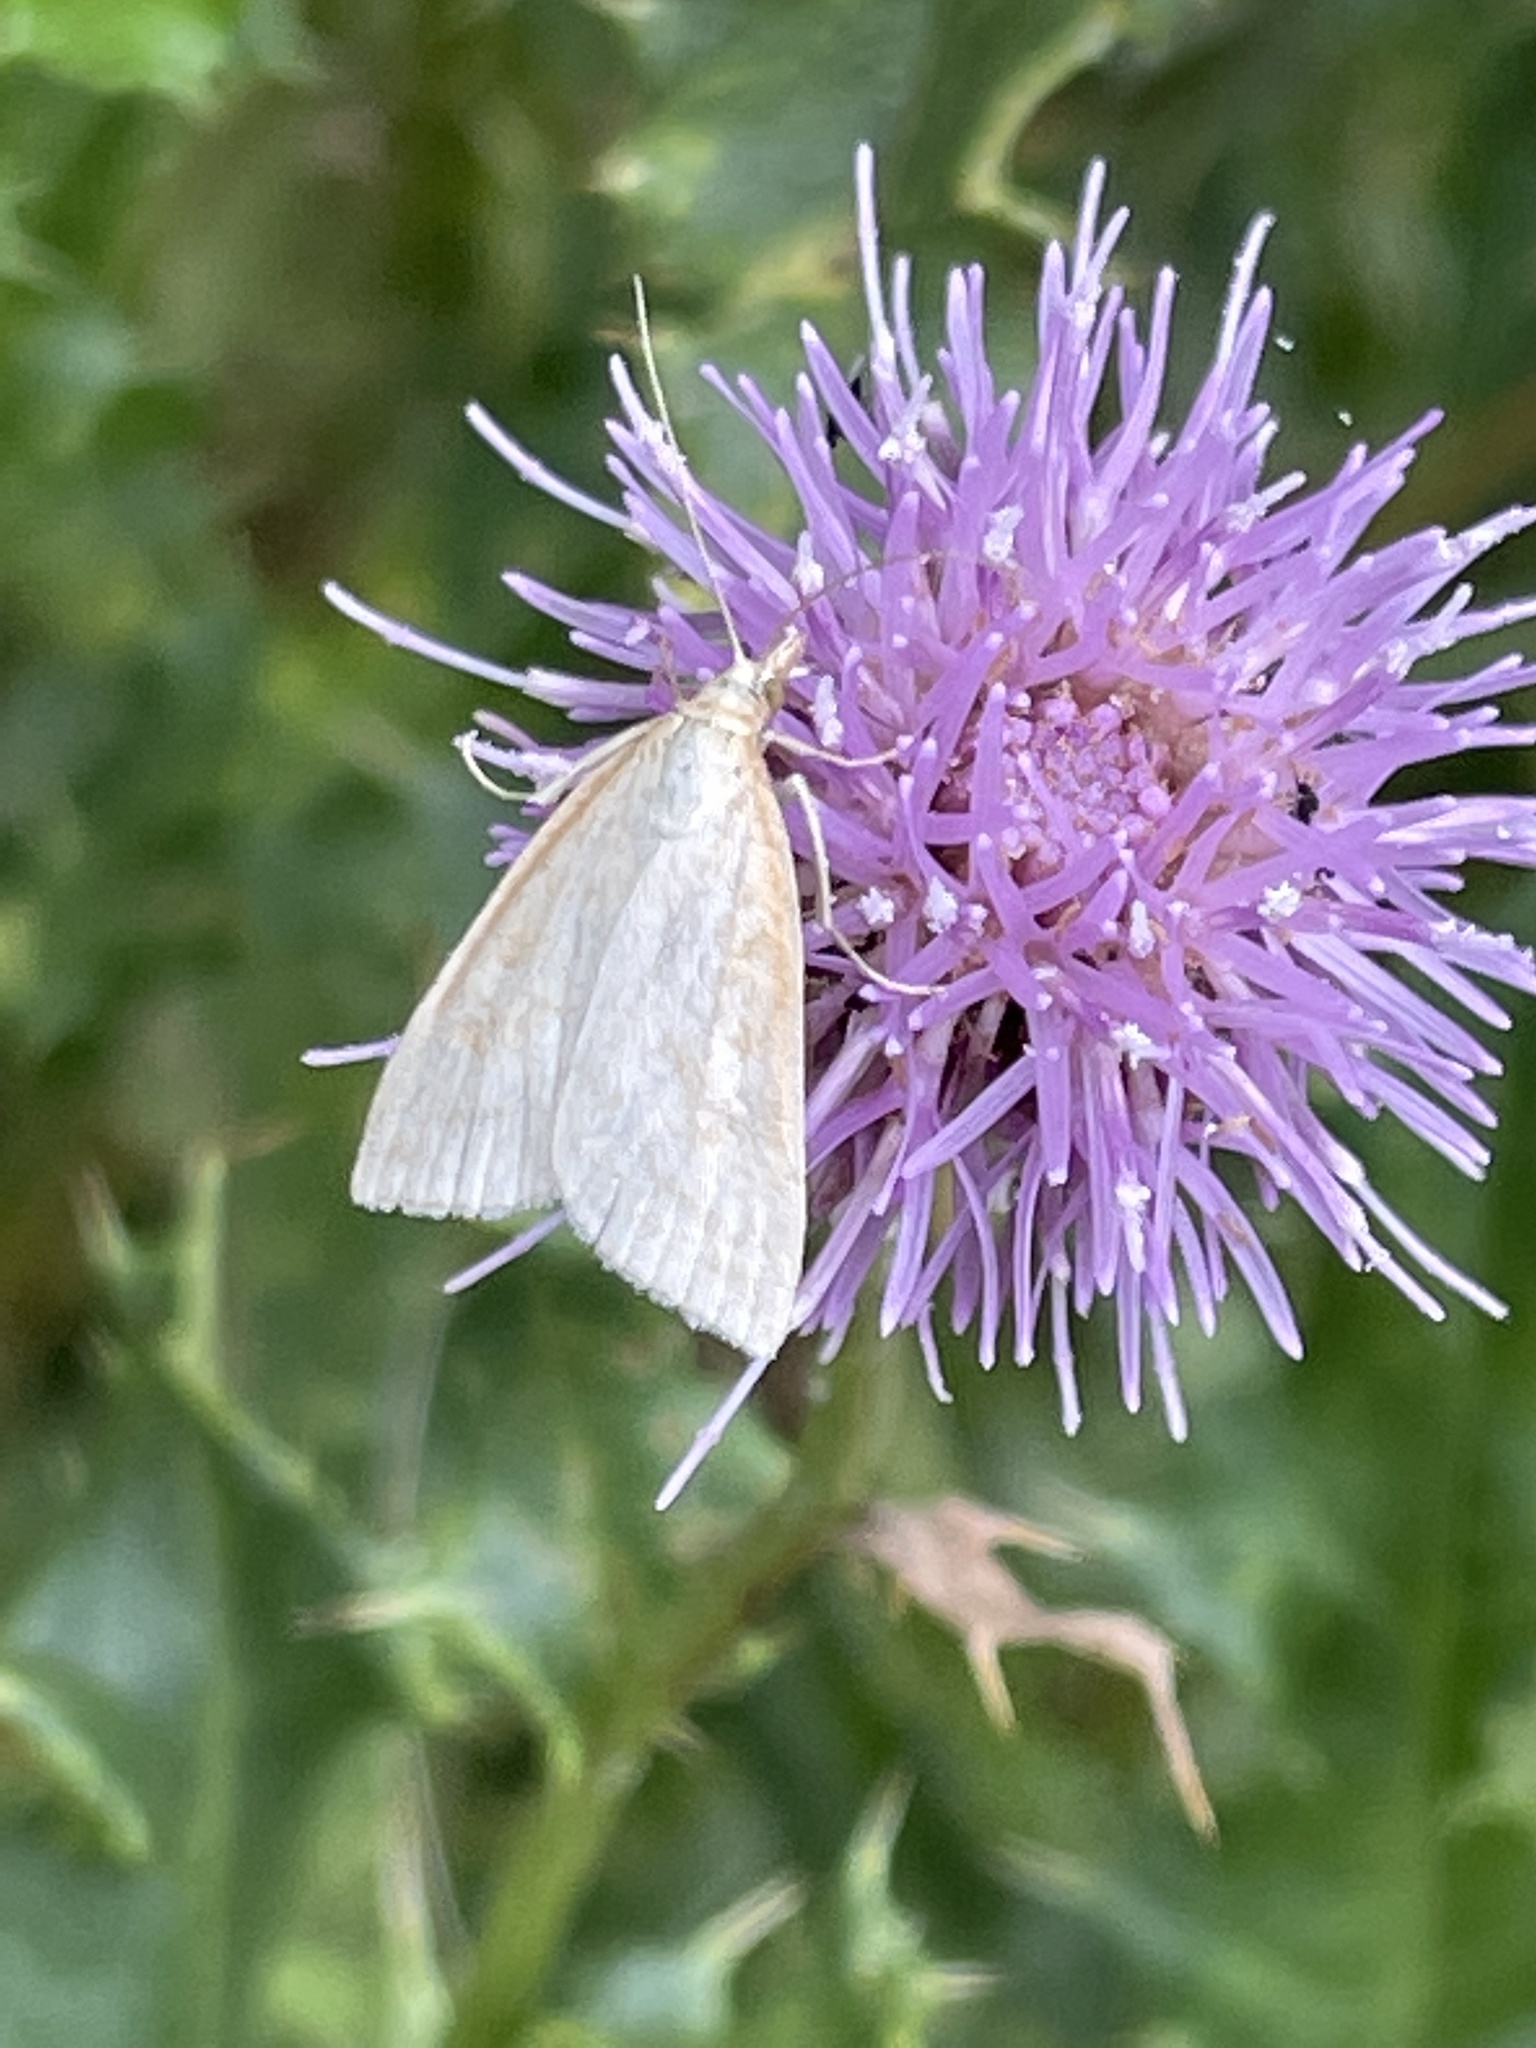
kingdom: Animalia
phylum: Arthropoda
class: Insecta
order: Lepidoptera
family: Crambidae
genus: Udea
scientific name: Udea lutealis
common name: Pale straw pearl
